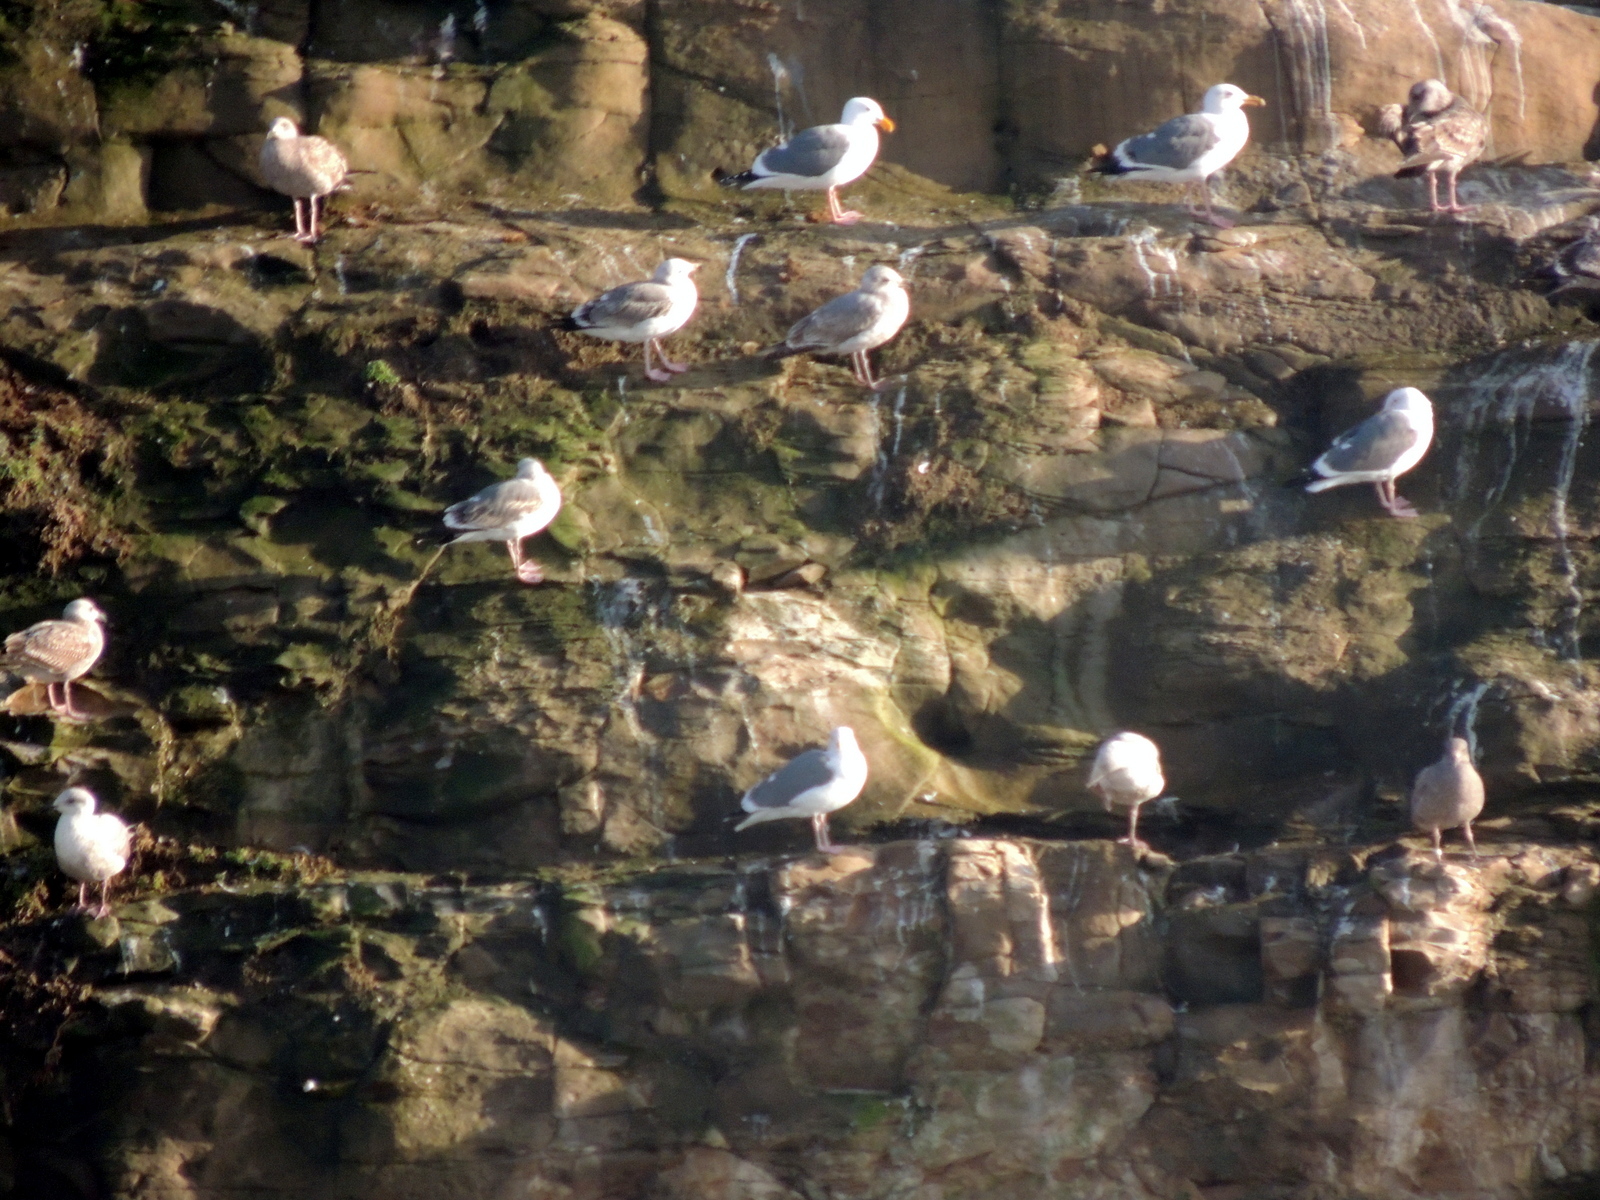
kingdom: Animalia
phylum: Chordata
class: Aves
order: Charadriiformes
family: Laridae
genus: Larus
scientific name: Larus occidentalis
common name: Western gull
